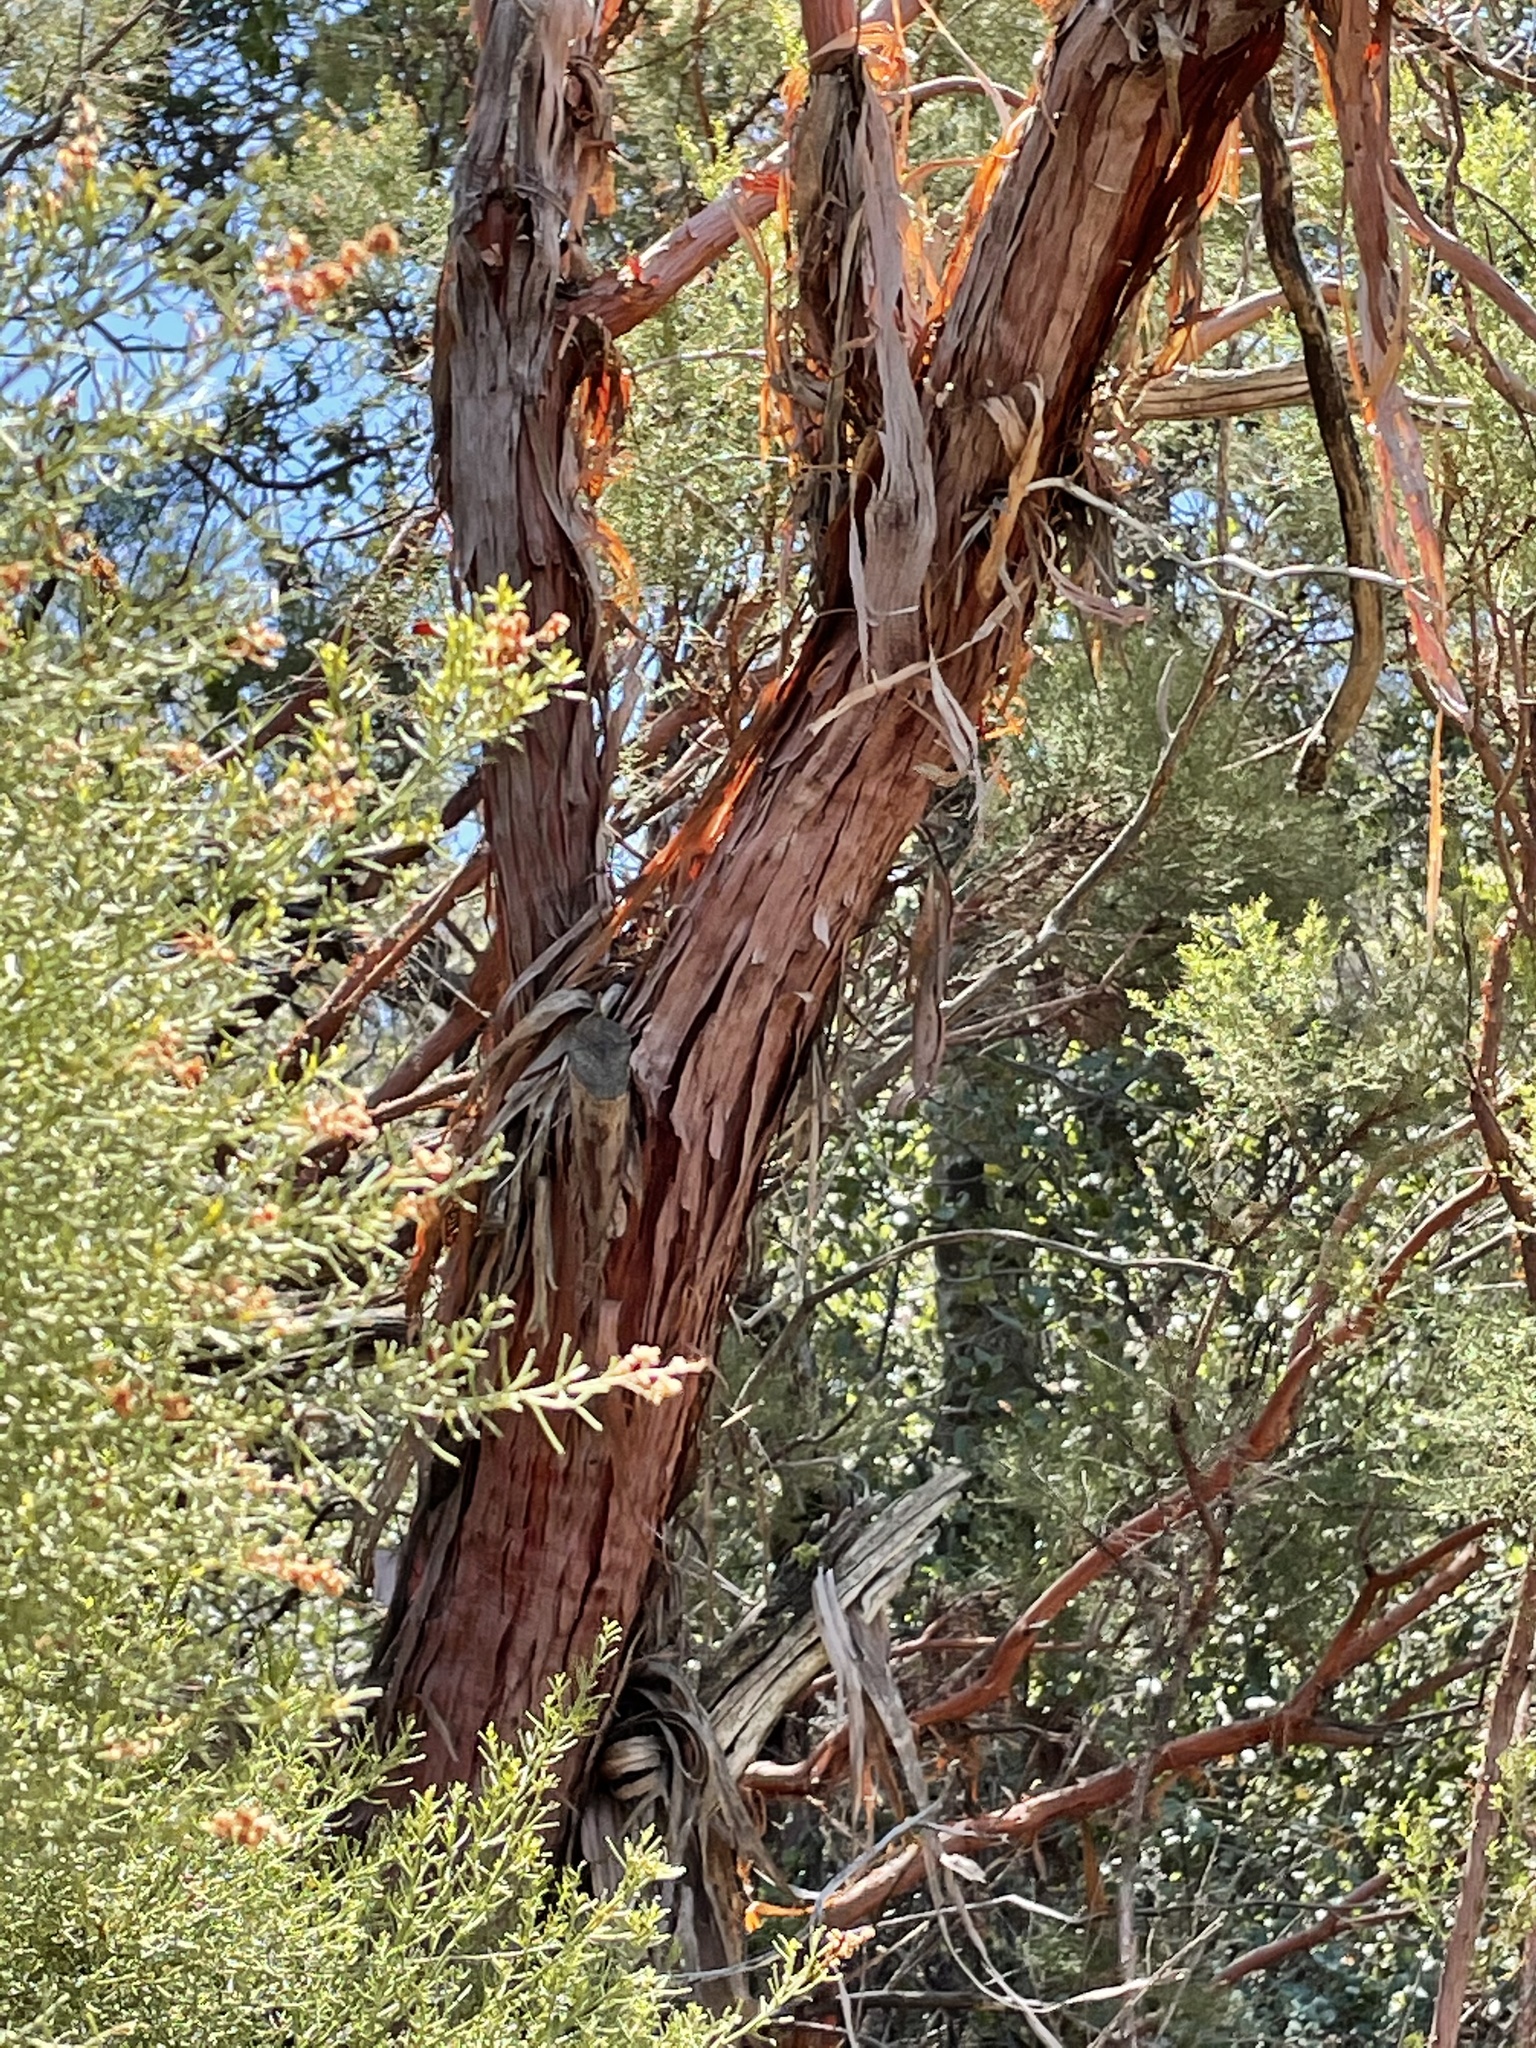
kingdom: Plantae
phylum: Tracheophyta
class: Magnoliopsida
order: Rosales
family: Rosaceae
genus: Adenostoma
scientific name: Adenostoma sparsifolium
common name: Red shank
